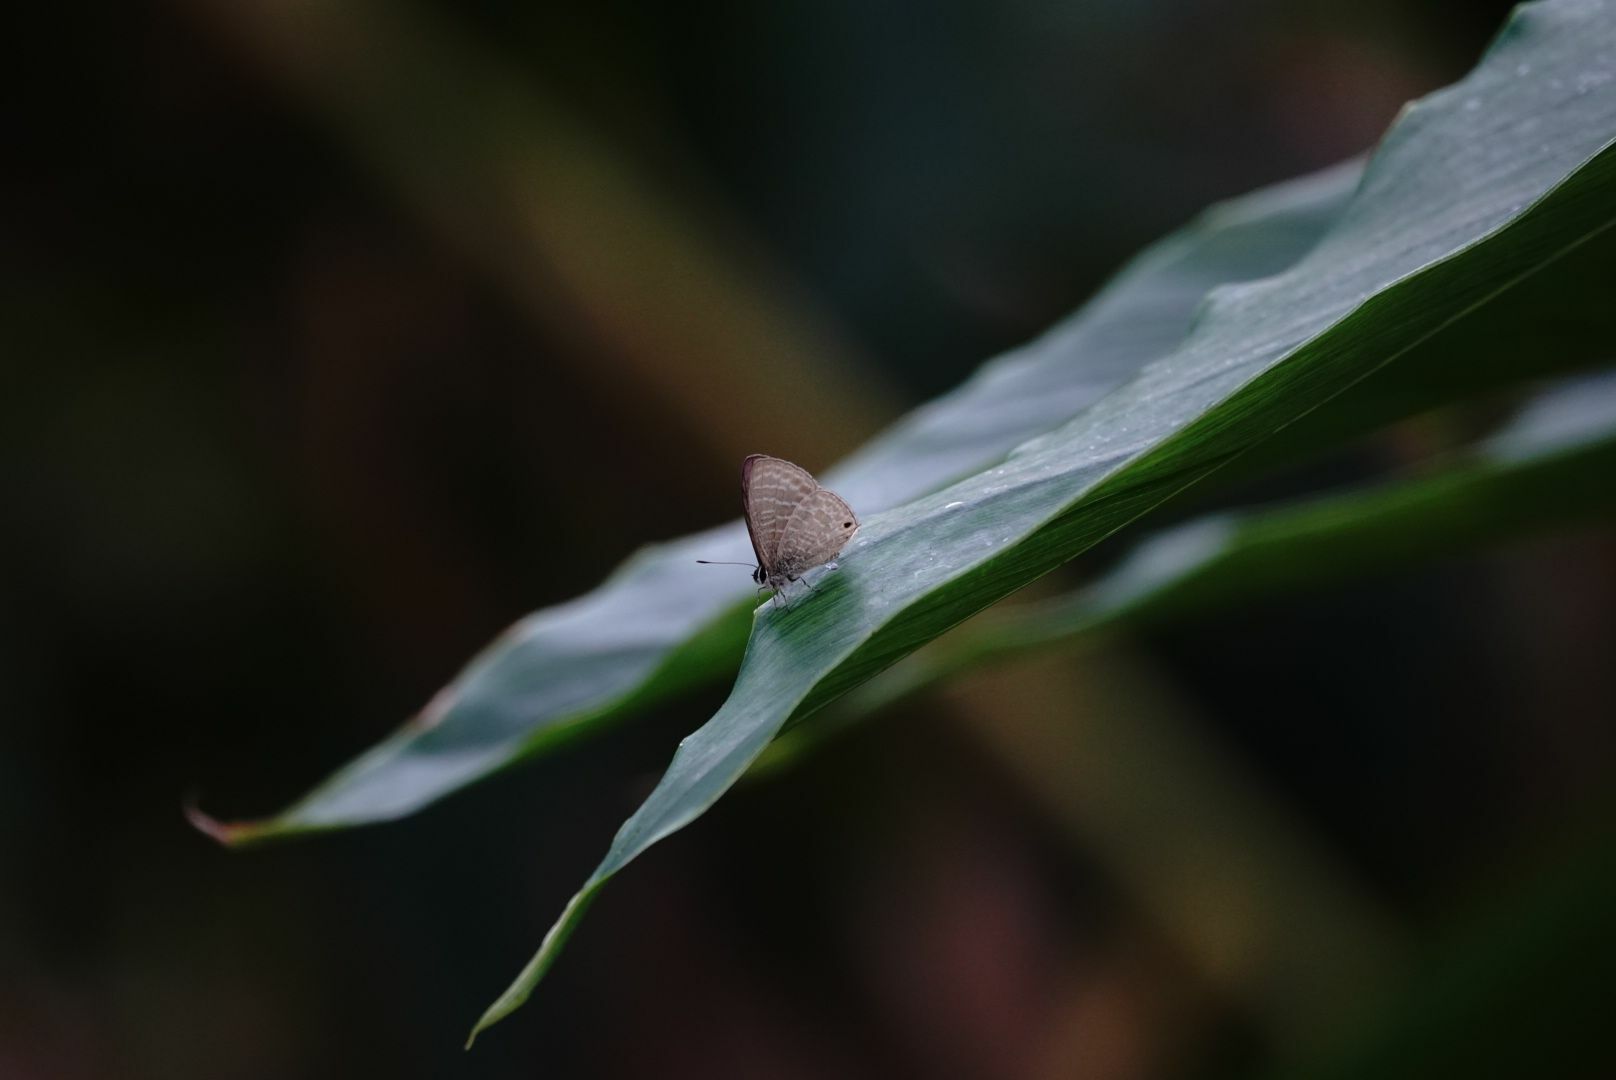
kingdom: Animalia
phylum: Arthropoda
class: Insecta
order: Lepidoptera
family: Lycaenidae
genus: Nacaduba
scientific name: Nacaduba kurava
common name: Transparent 6-line blue
